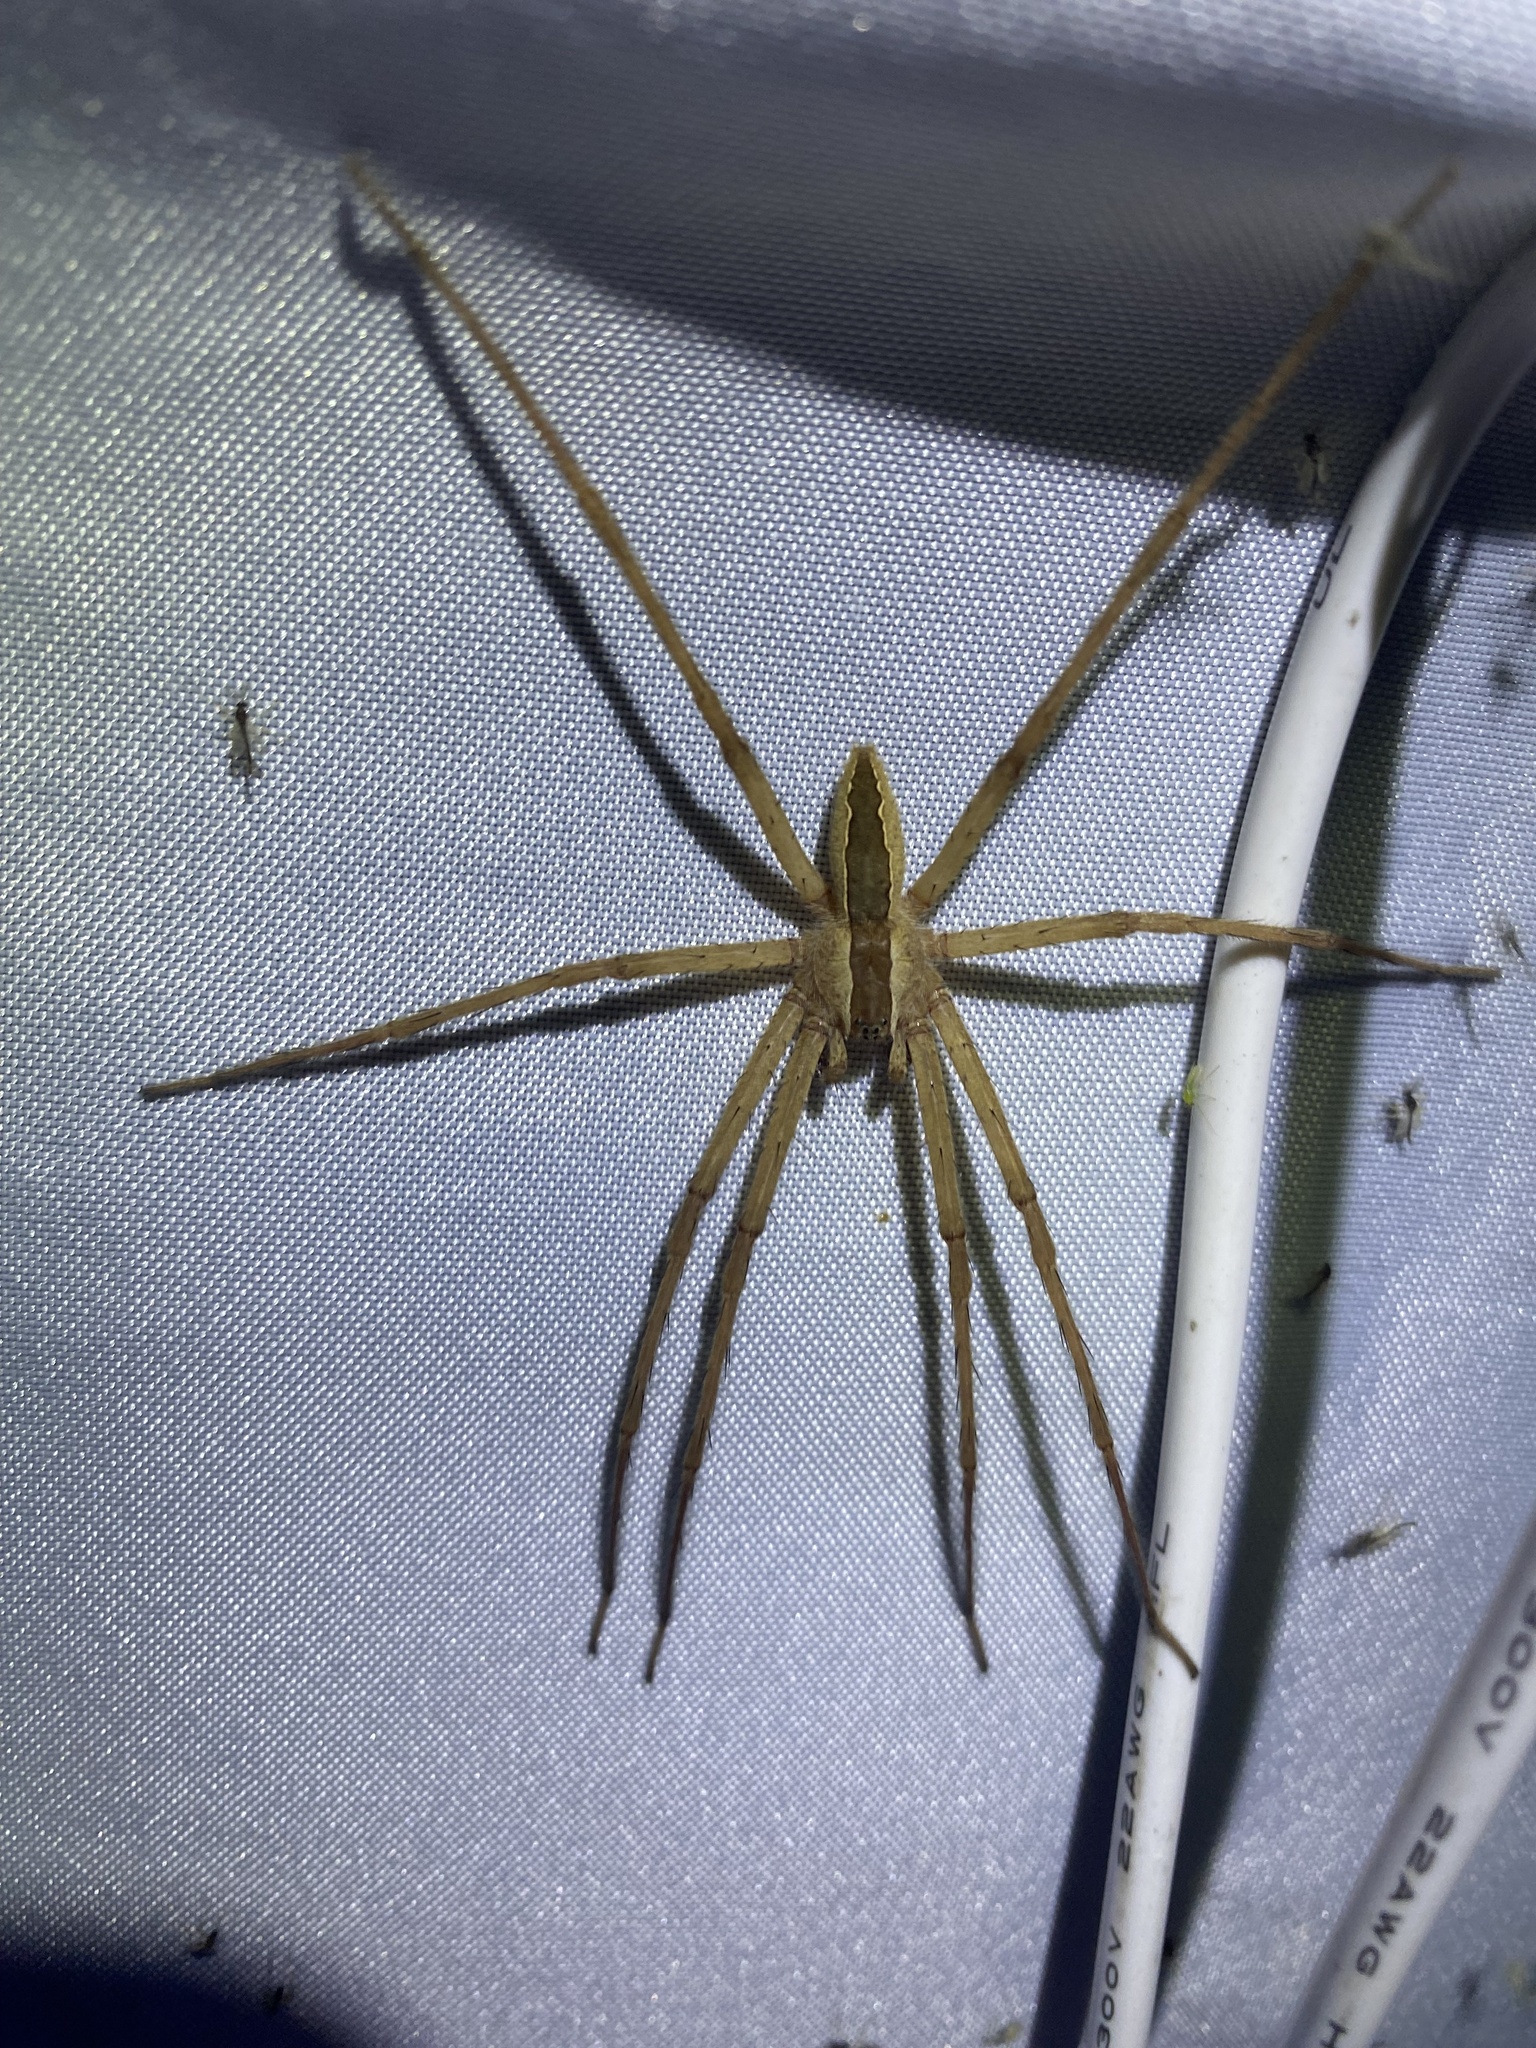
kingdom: Animalia
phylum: Arthropoda
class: Arachnida
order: Araneae
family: Pisauridae
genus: Pisaurina
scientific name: Pisaurina mira
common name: American nursery web spider
